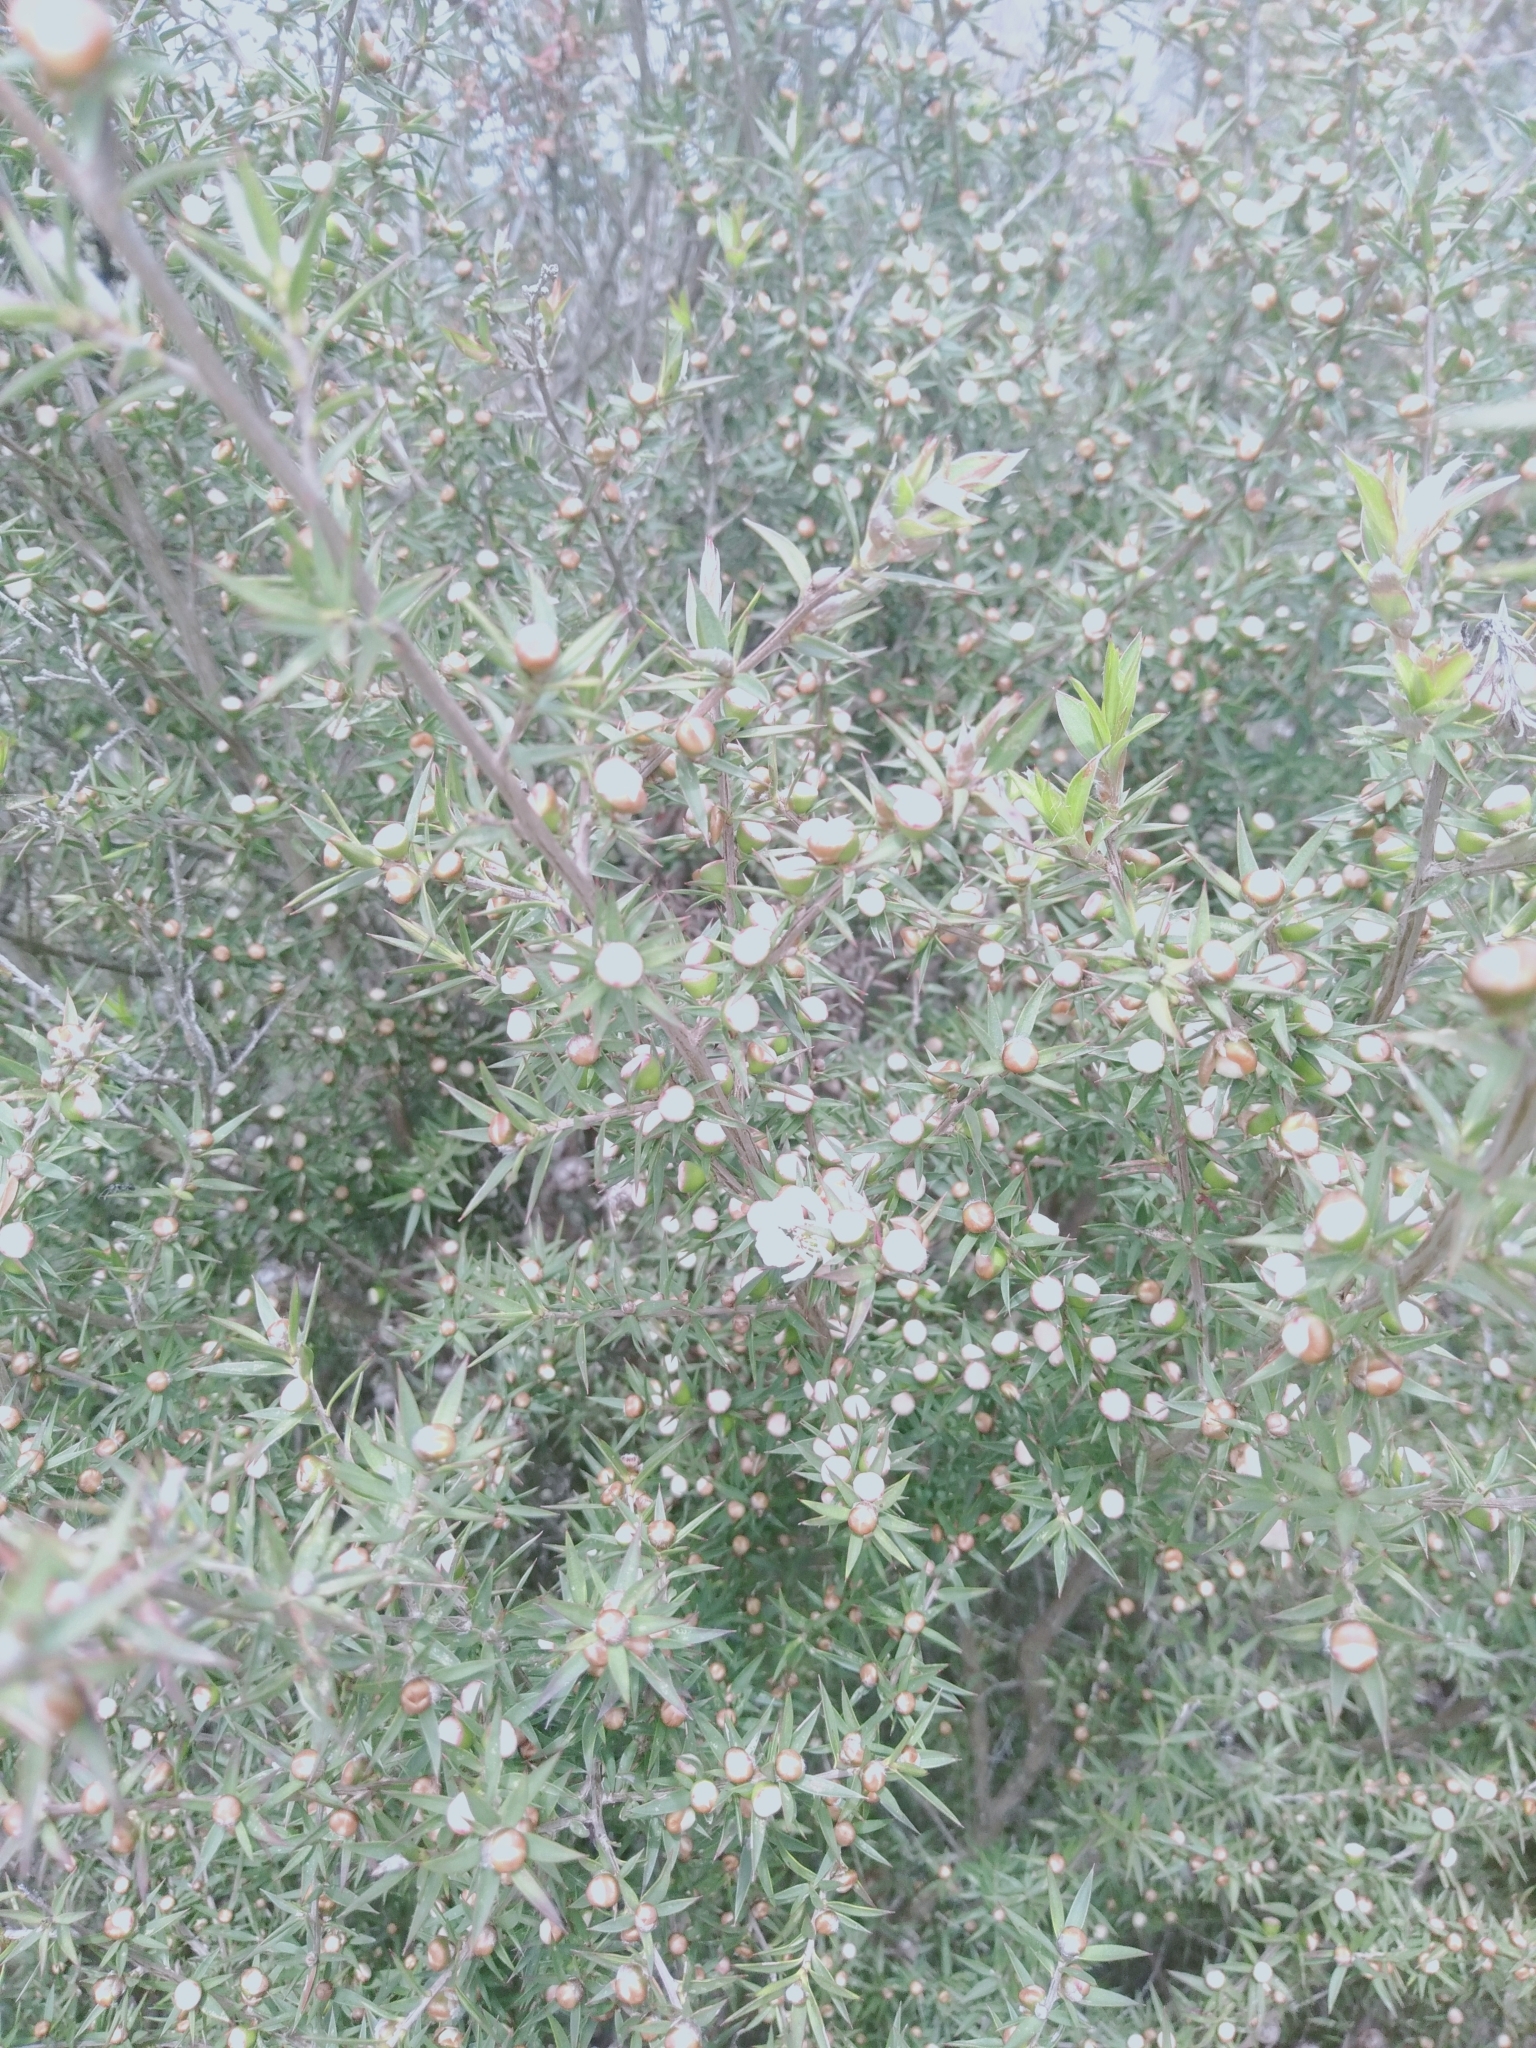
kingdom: Plantae
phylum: Tracheophyta
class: Magnoliopsida
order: Myrtales
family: Myrtaceae
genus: Leptospermum
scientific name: Leptospermum continentale
